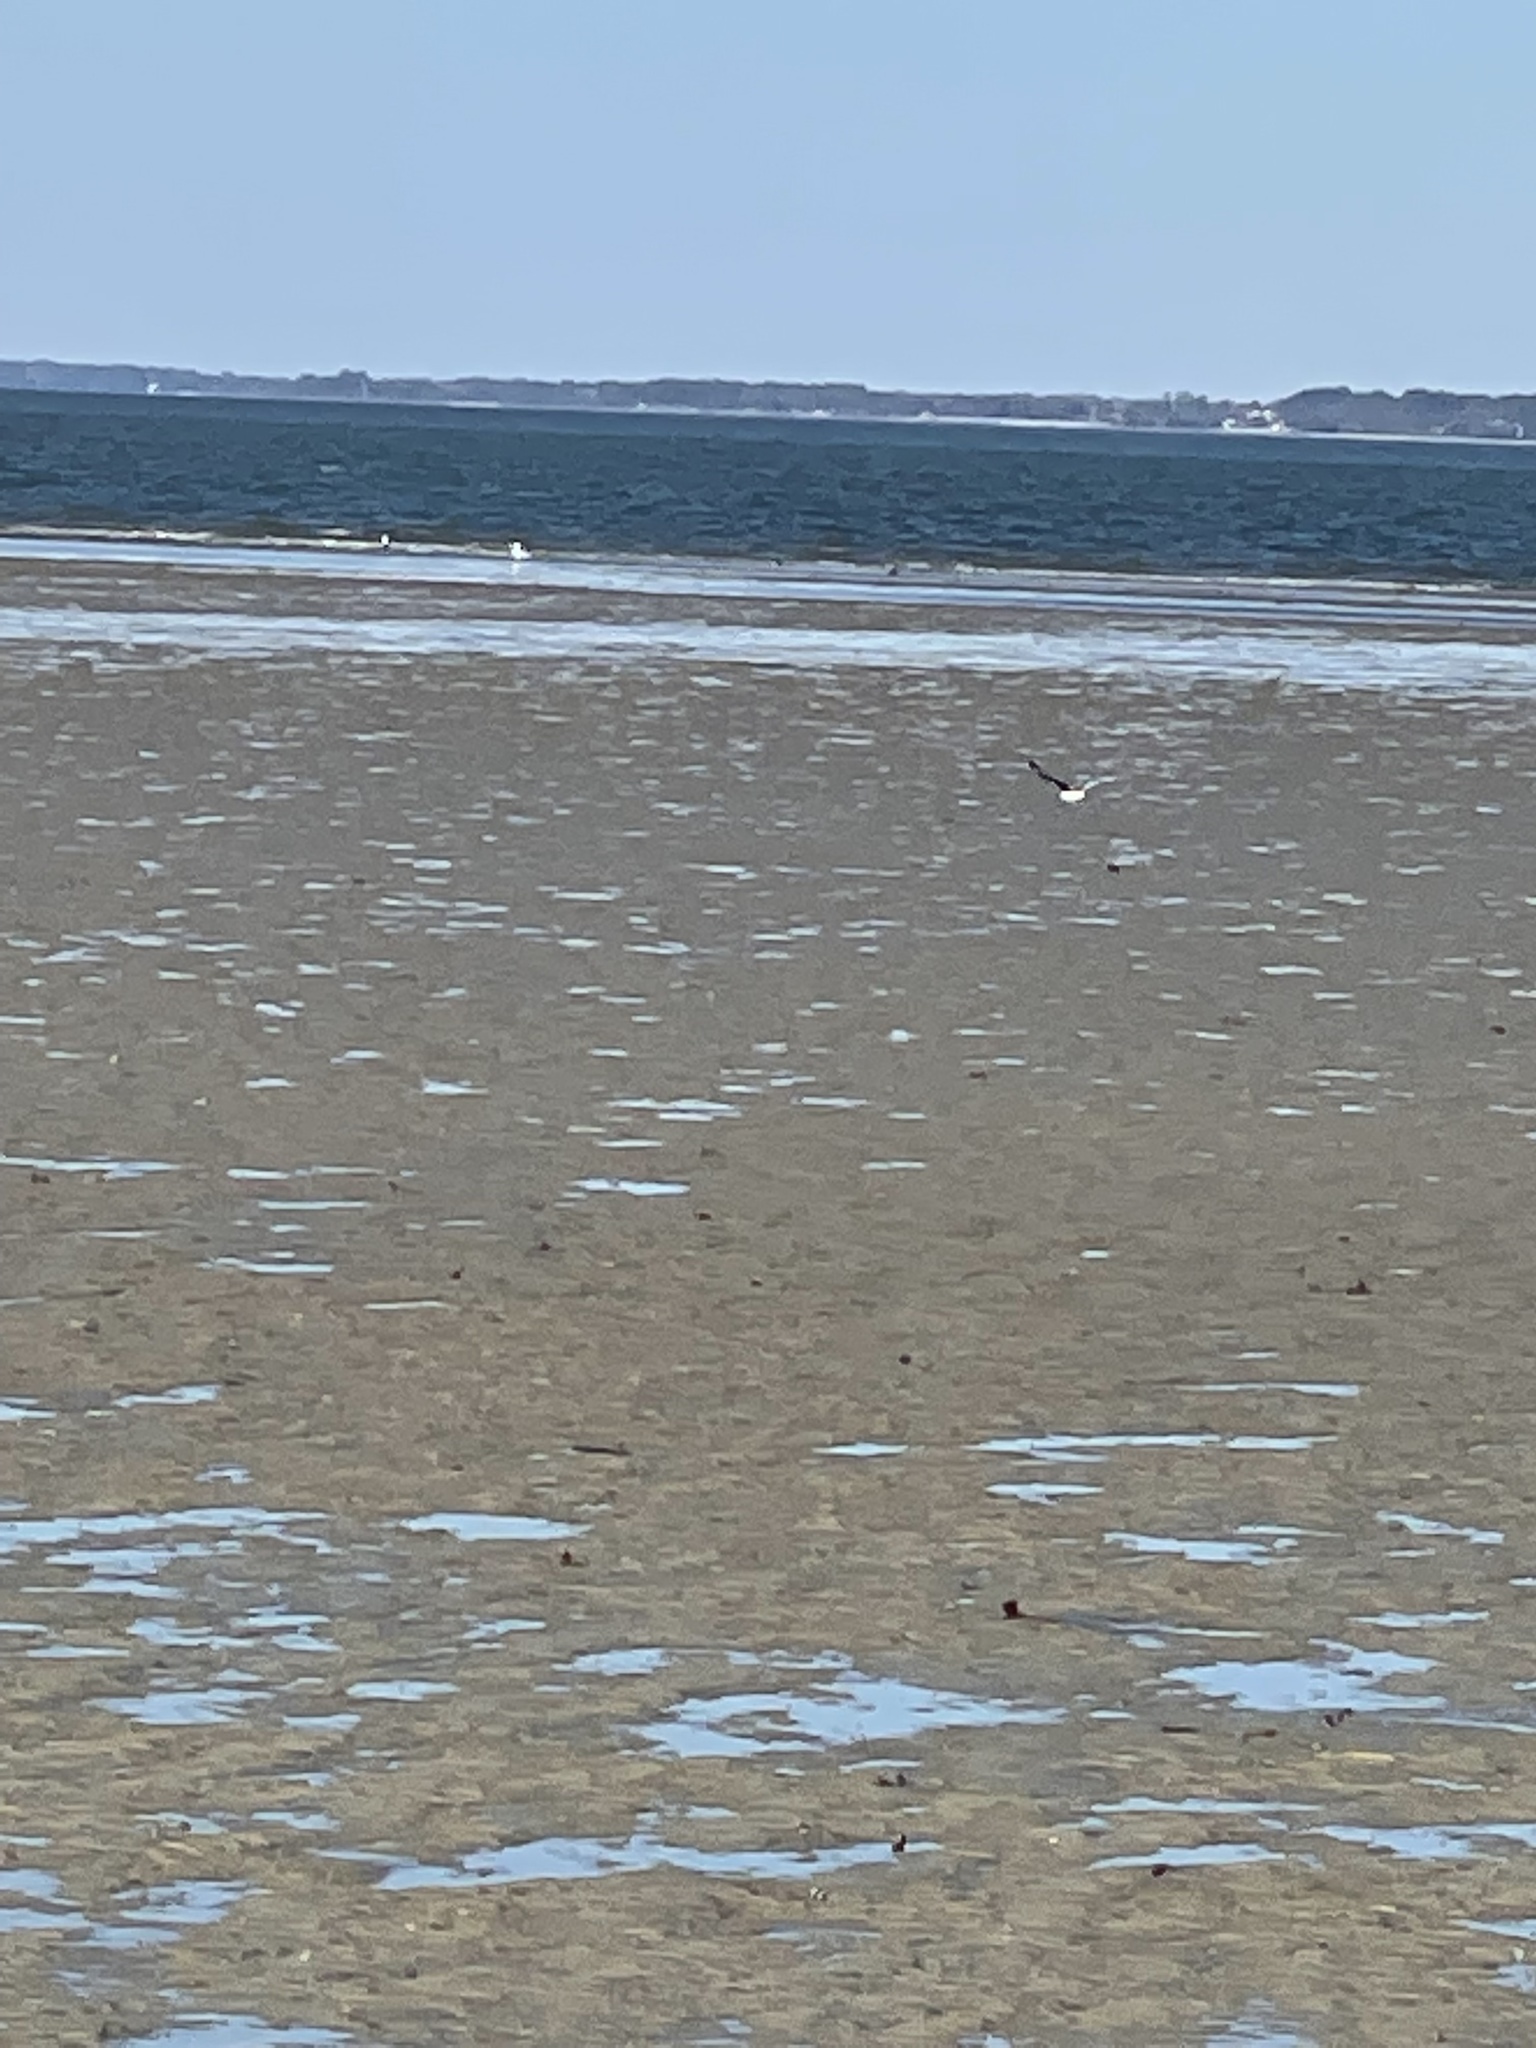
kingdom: Animalia
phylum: Chordata
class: Aves
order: Charadriiformes
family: Scolopacidae
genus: Tringa
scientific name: Tringa semipalmata
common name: Willet
